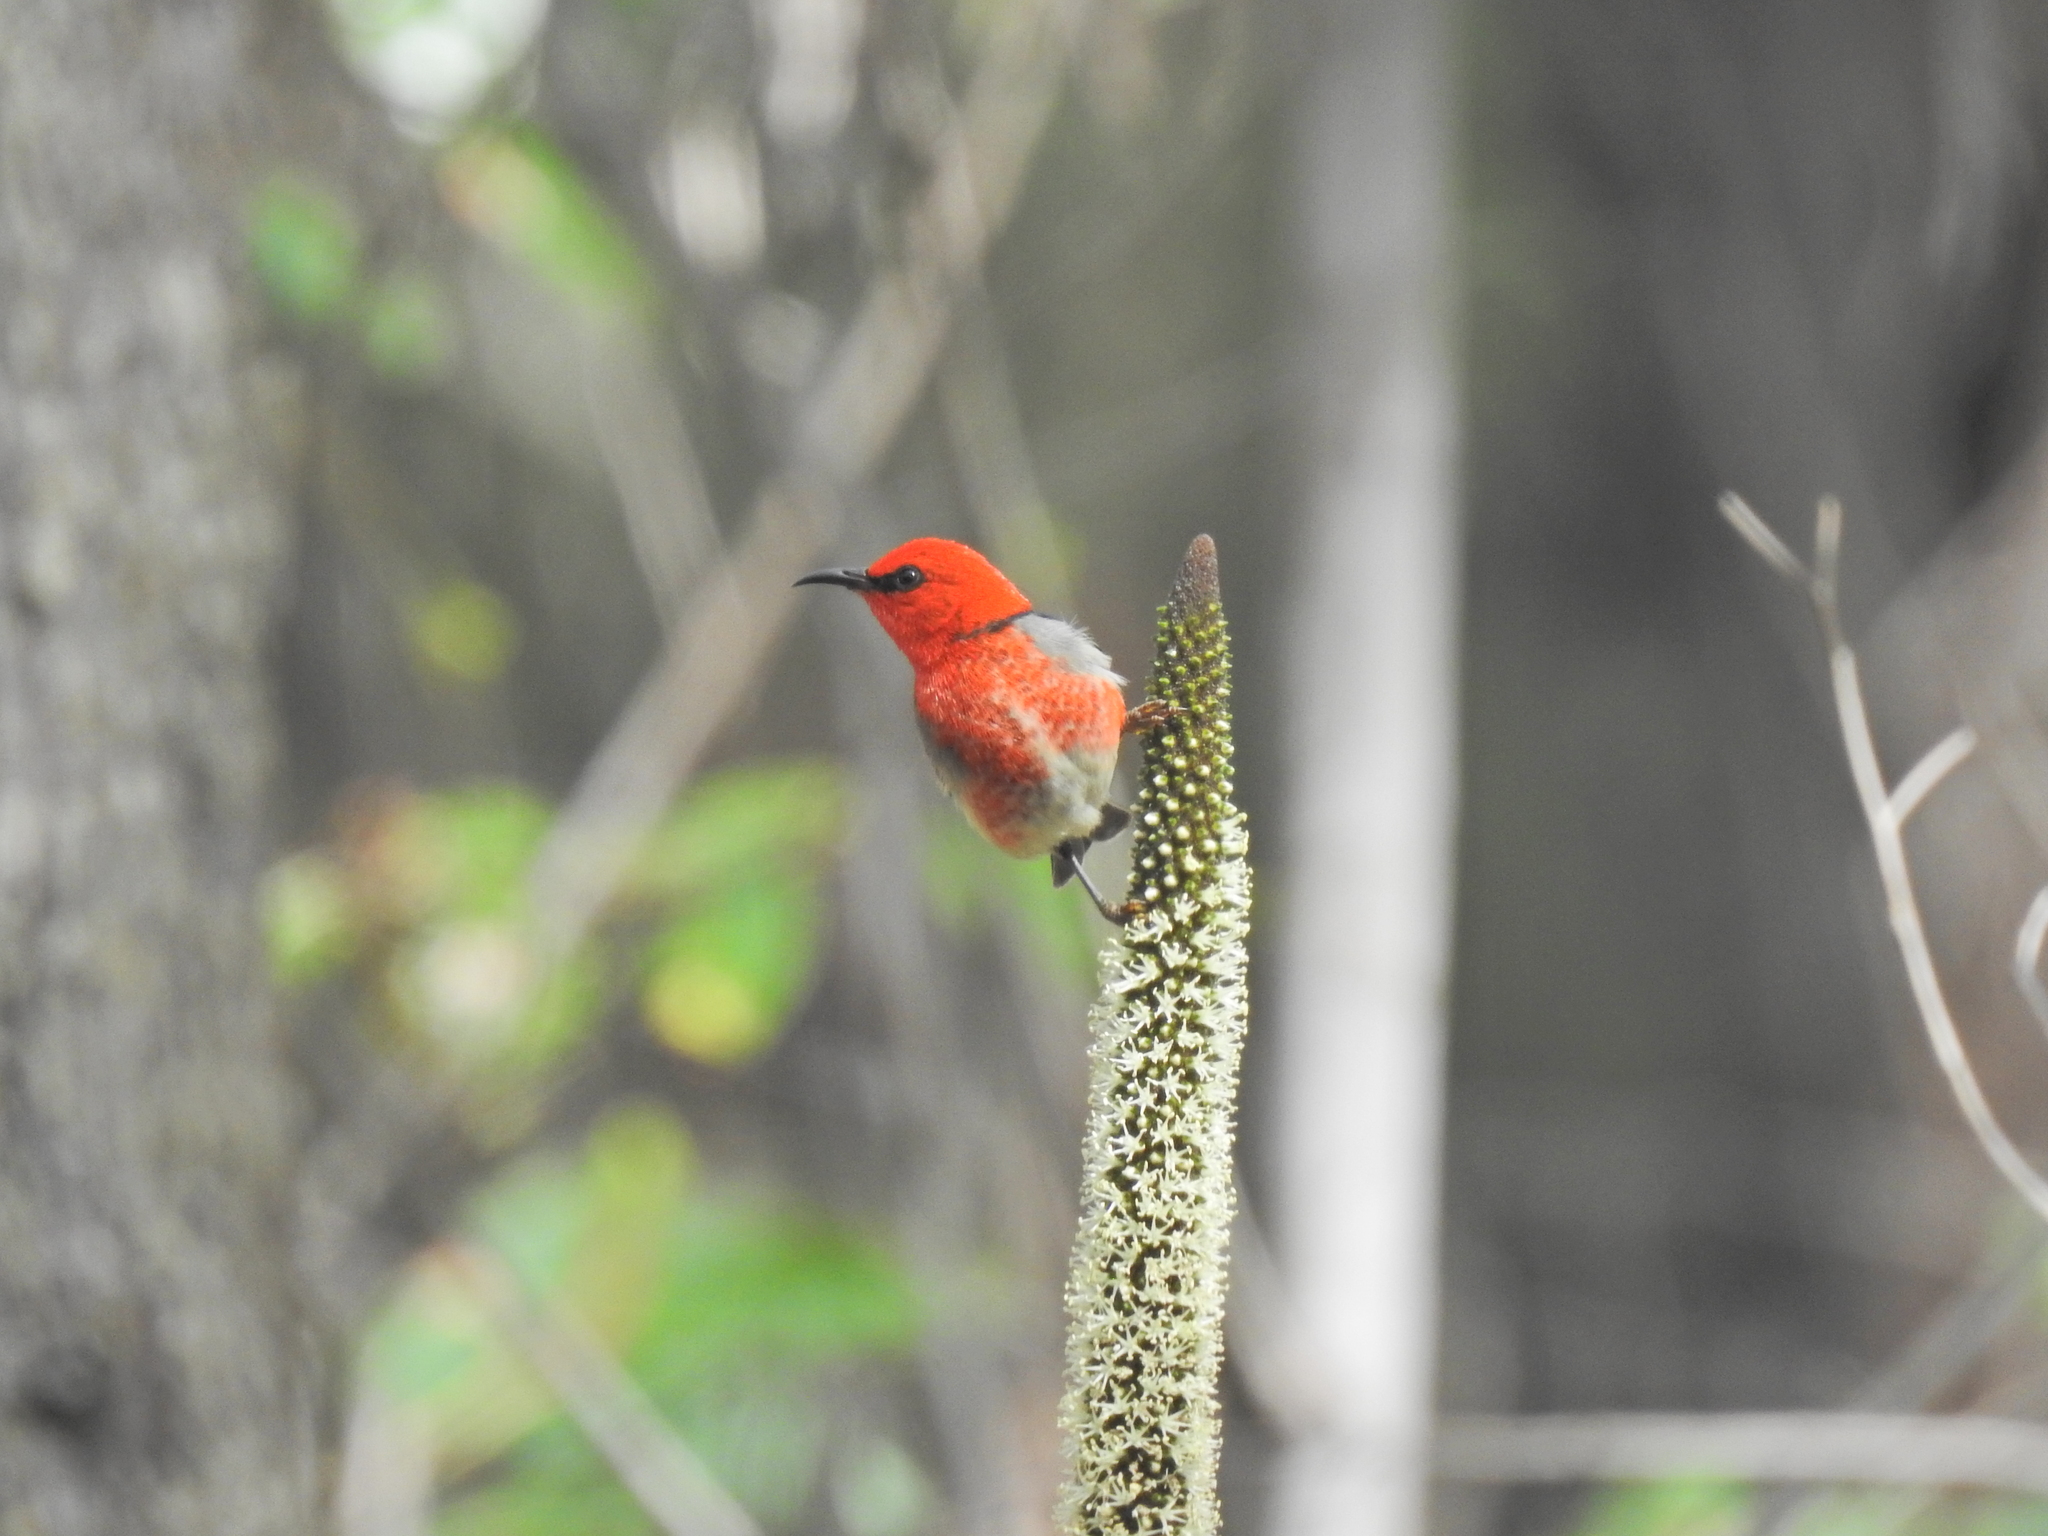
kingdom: Animalia
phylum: Chordata
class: Aves
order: Passeriformes
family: Meliphagidae
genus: Myzomela
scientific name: Myzomela sanguinolenta
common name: Scarlet myzomela
